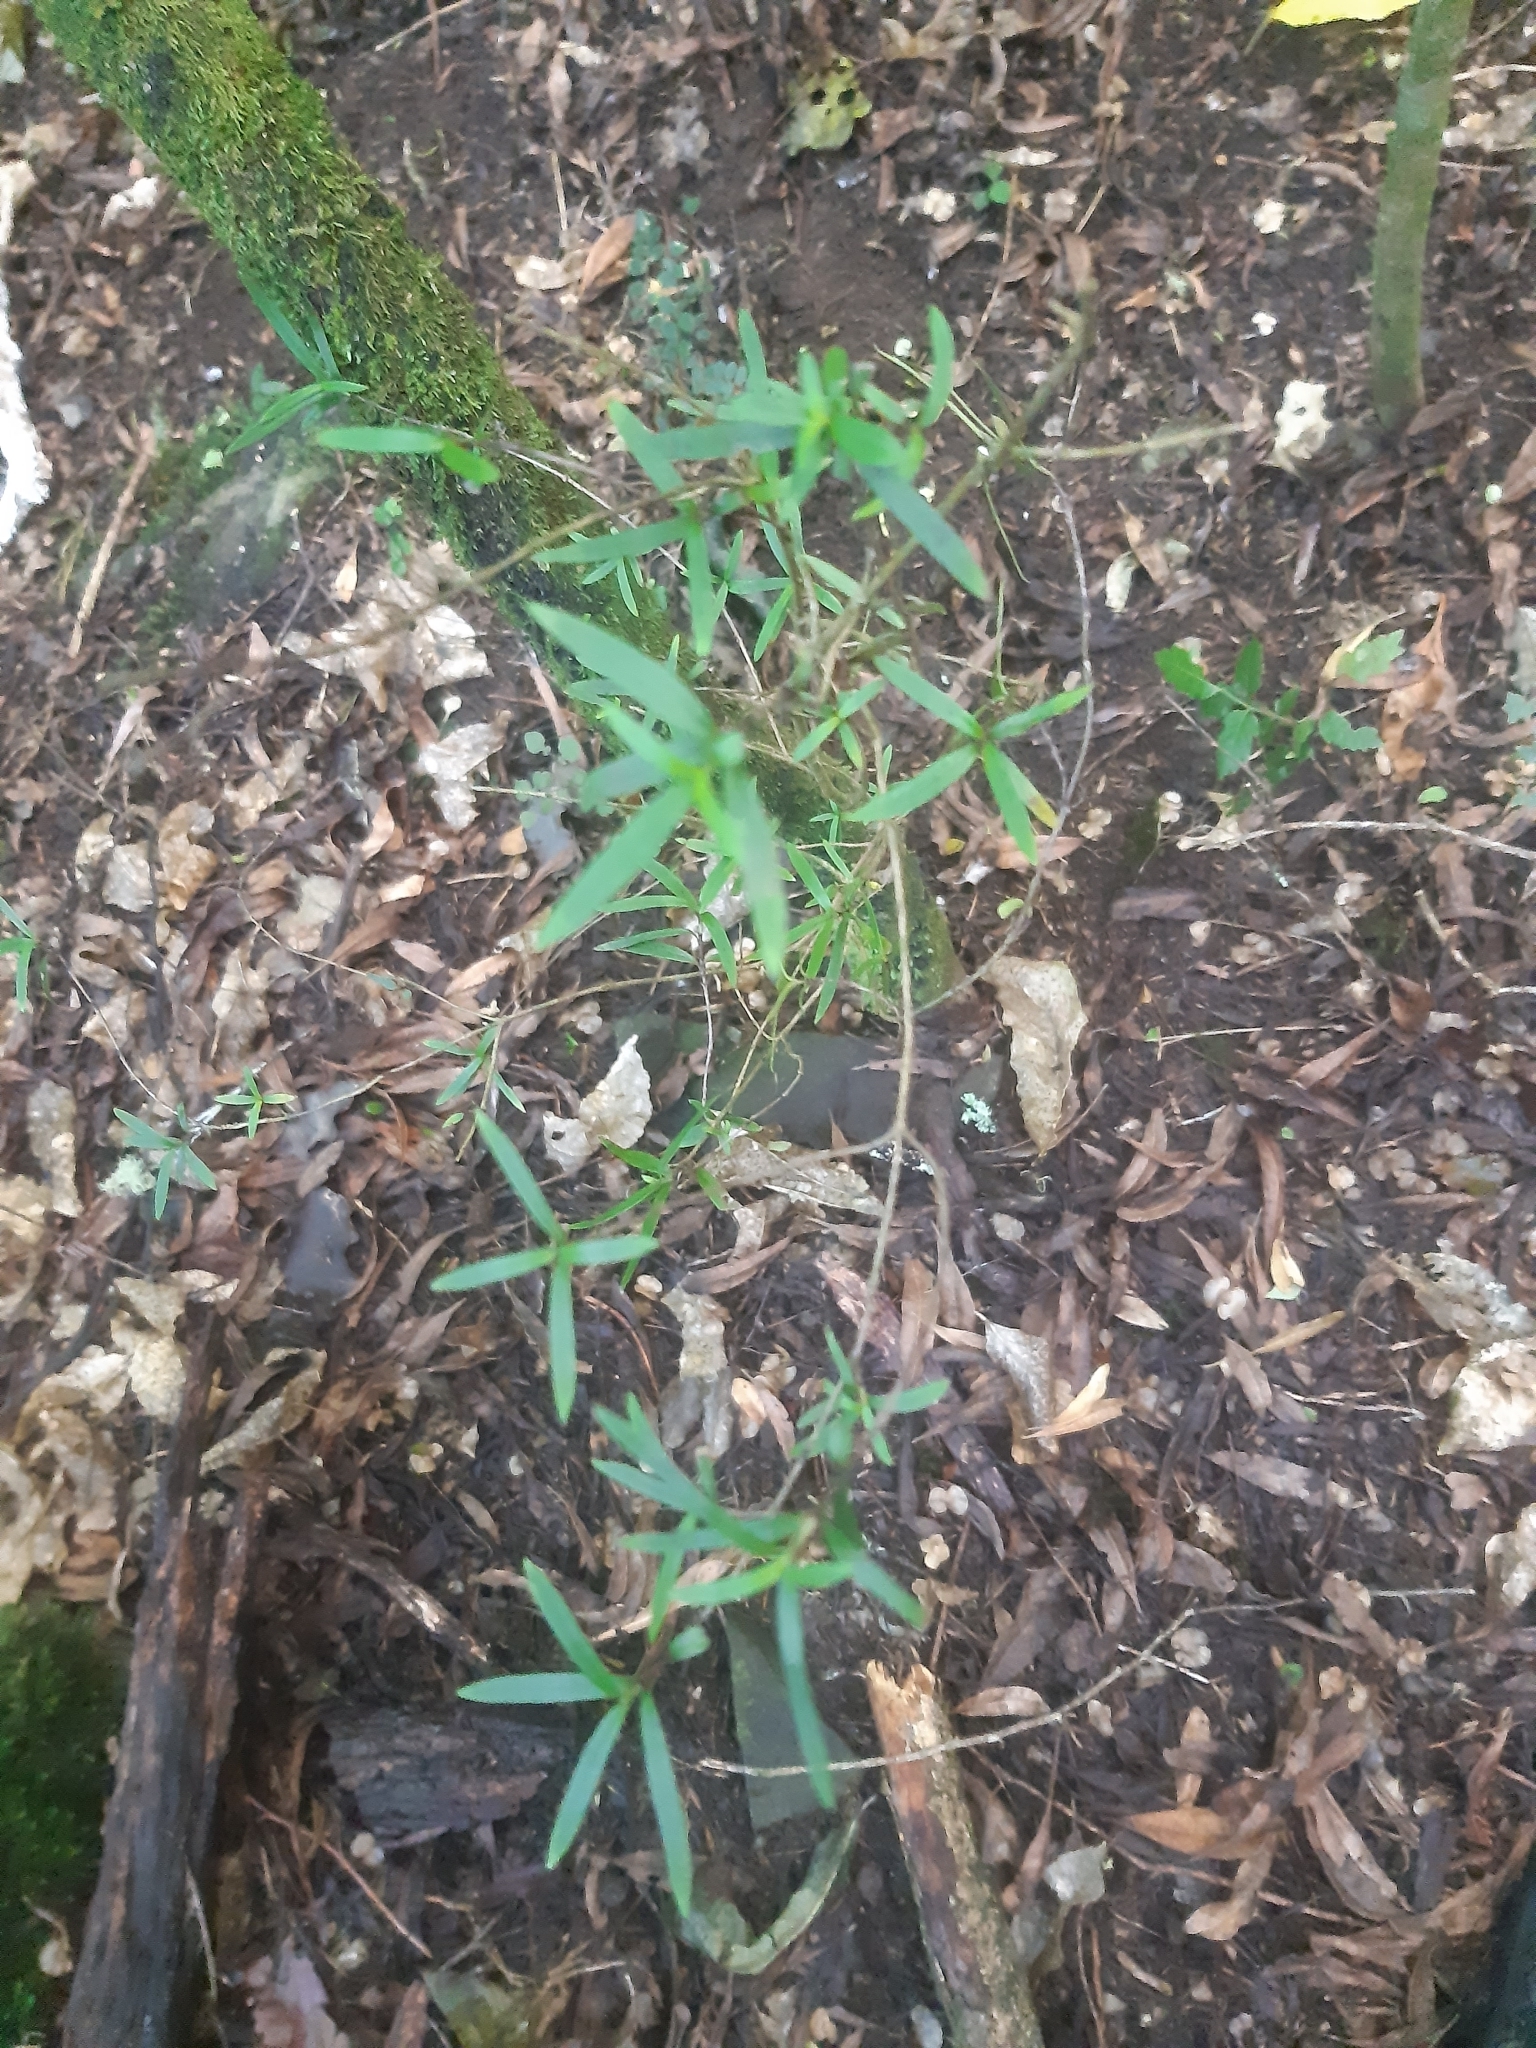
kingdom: Plantae
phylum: Tracheophyta
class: Magnoliopsida
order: Gentianales
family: Rubiaceae
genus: Coprosma
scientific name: Coprosma linariifolia
